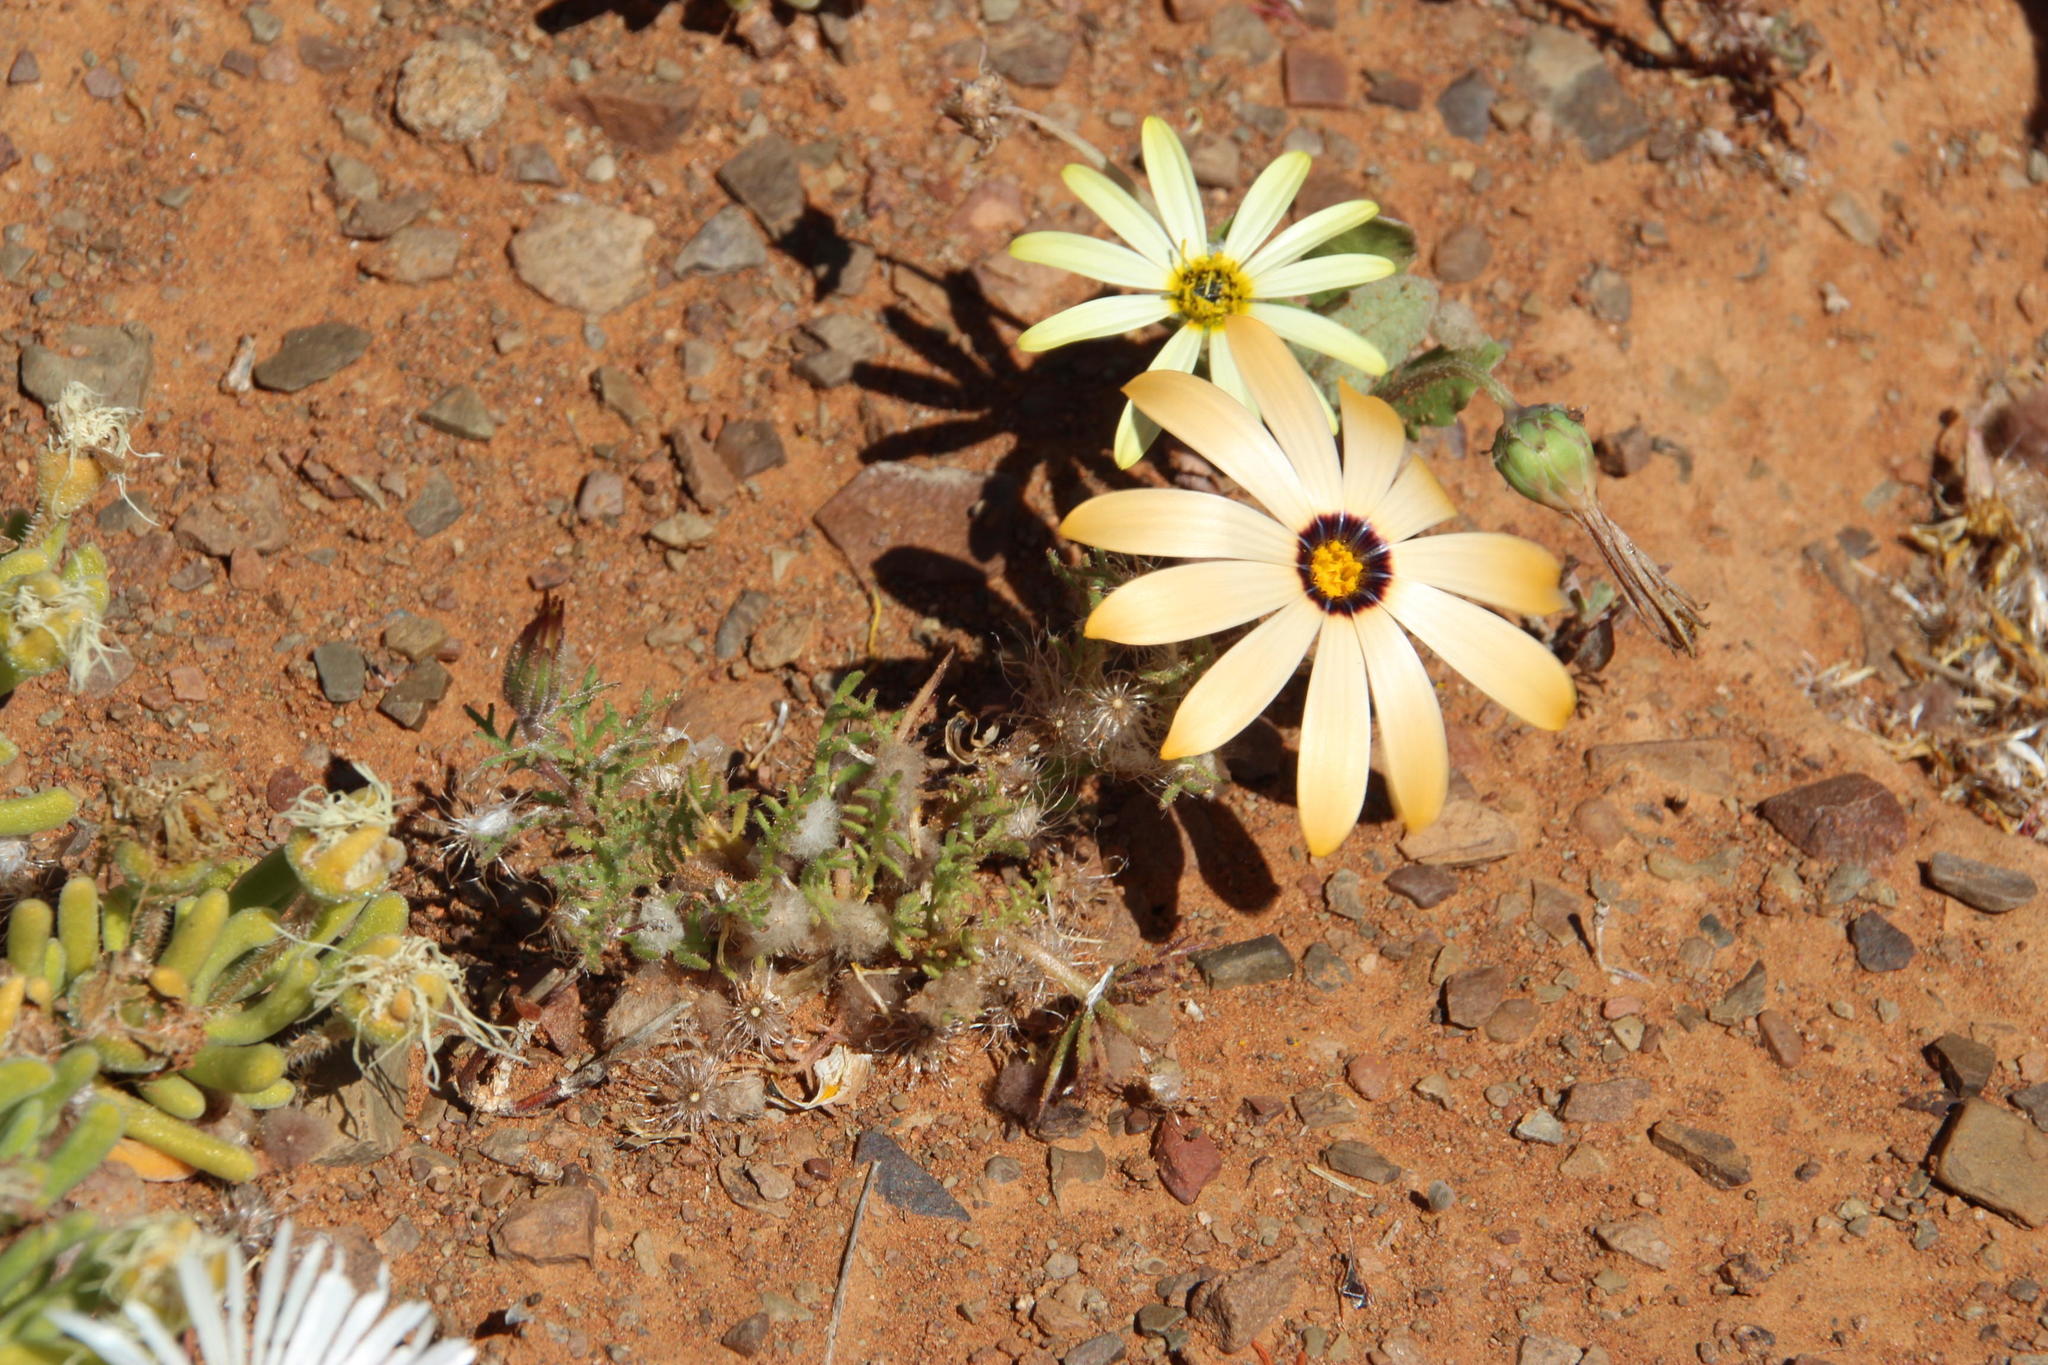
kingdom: Plantae
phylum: Tracheophyta
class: Magnoliopsida
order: Asterales
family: Asteraceae
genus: Dimorphotheca
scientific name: Dimorphotheca pinnata
